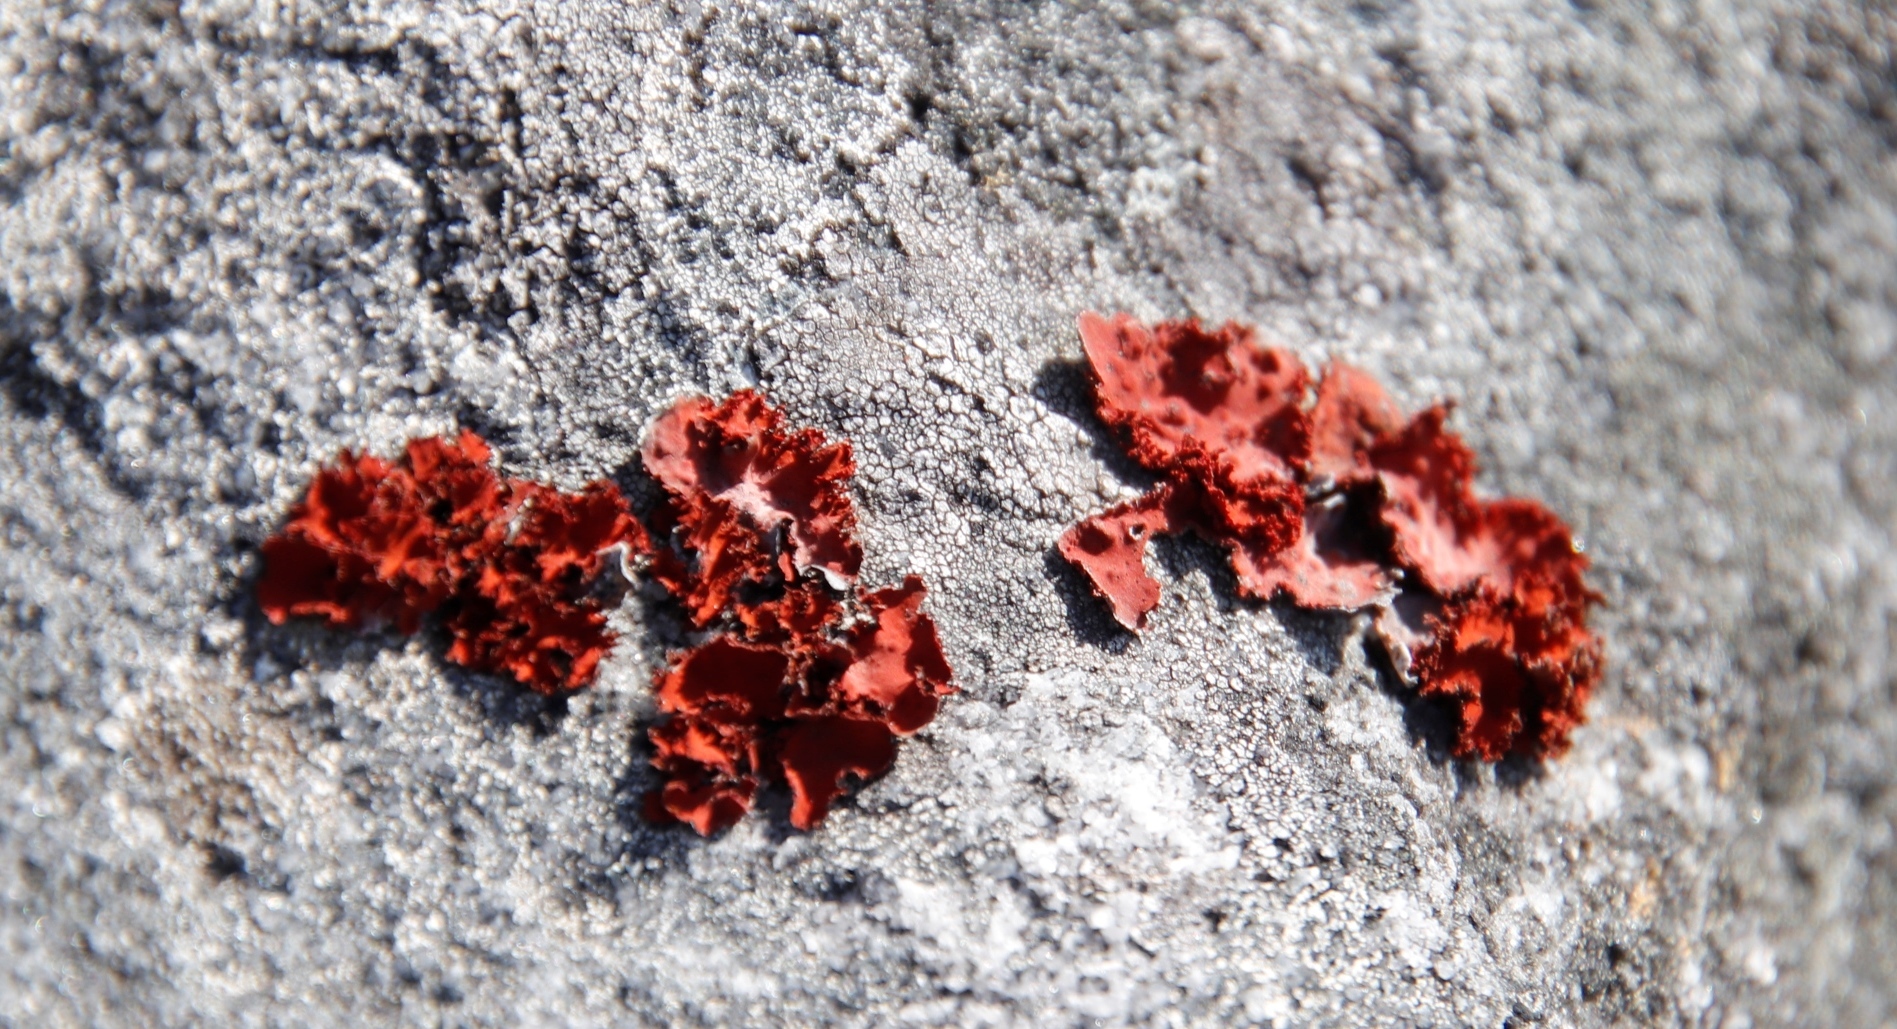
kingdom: Fungi
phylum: Ascomycota
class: Lecanoromycetes
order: Umbilicariales
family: Umbilicariaceae
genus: Lasallia
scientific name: Lasallia rubiginosa
